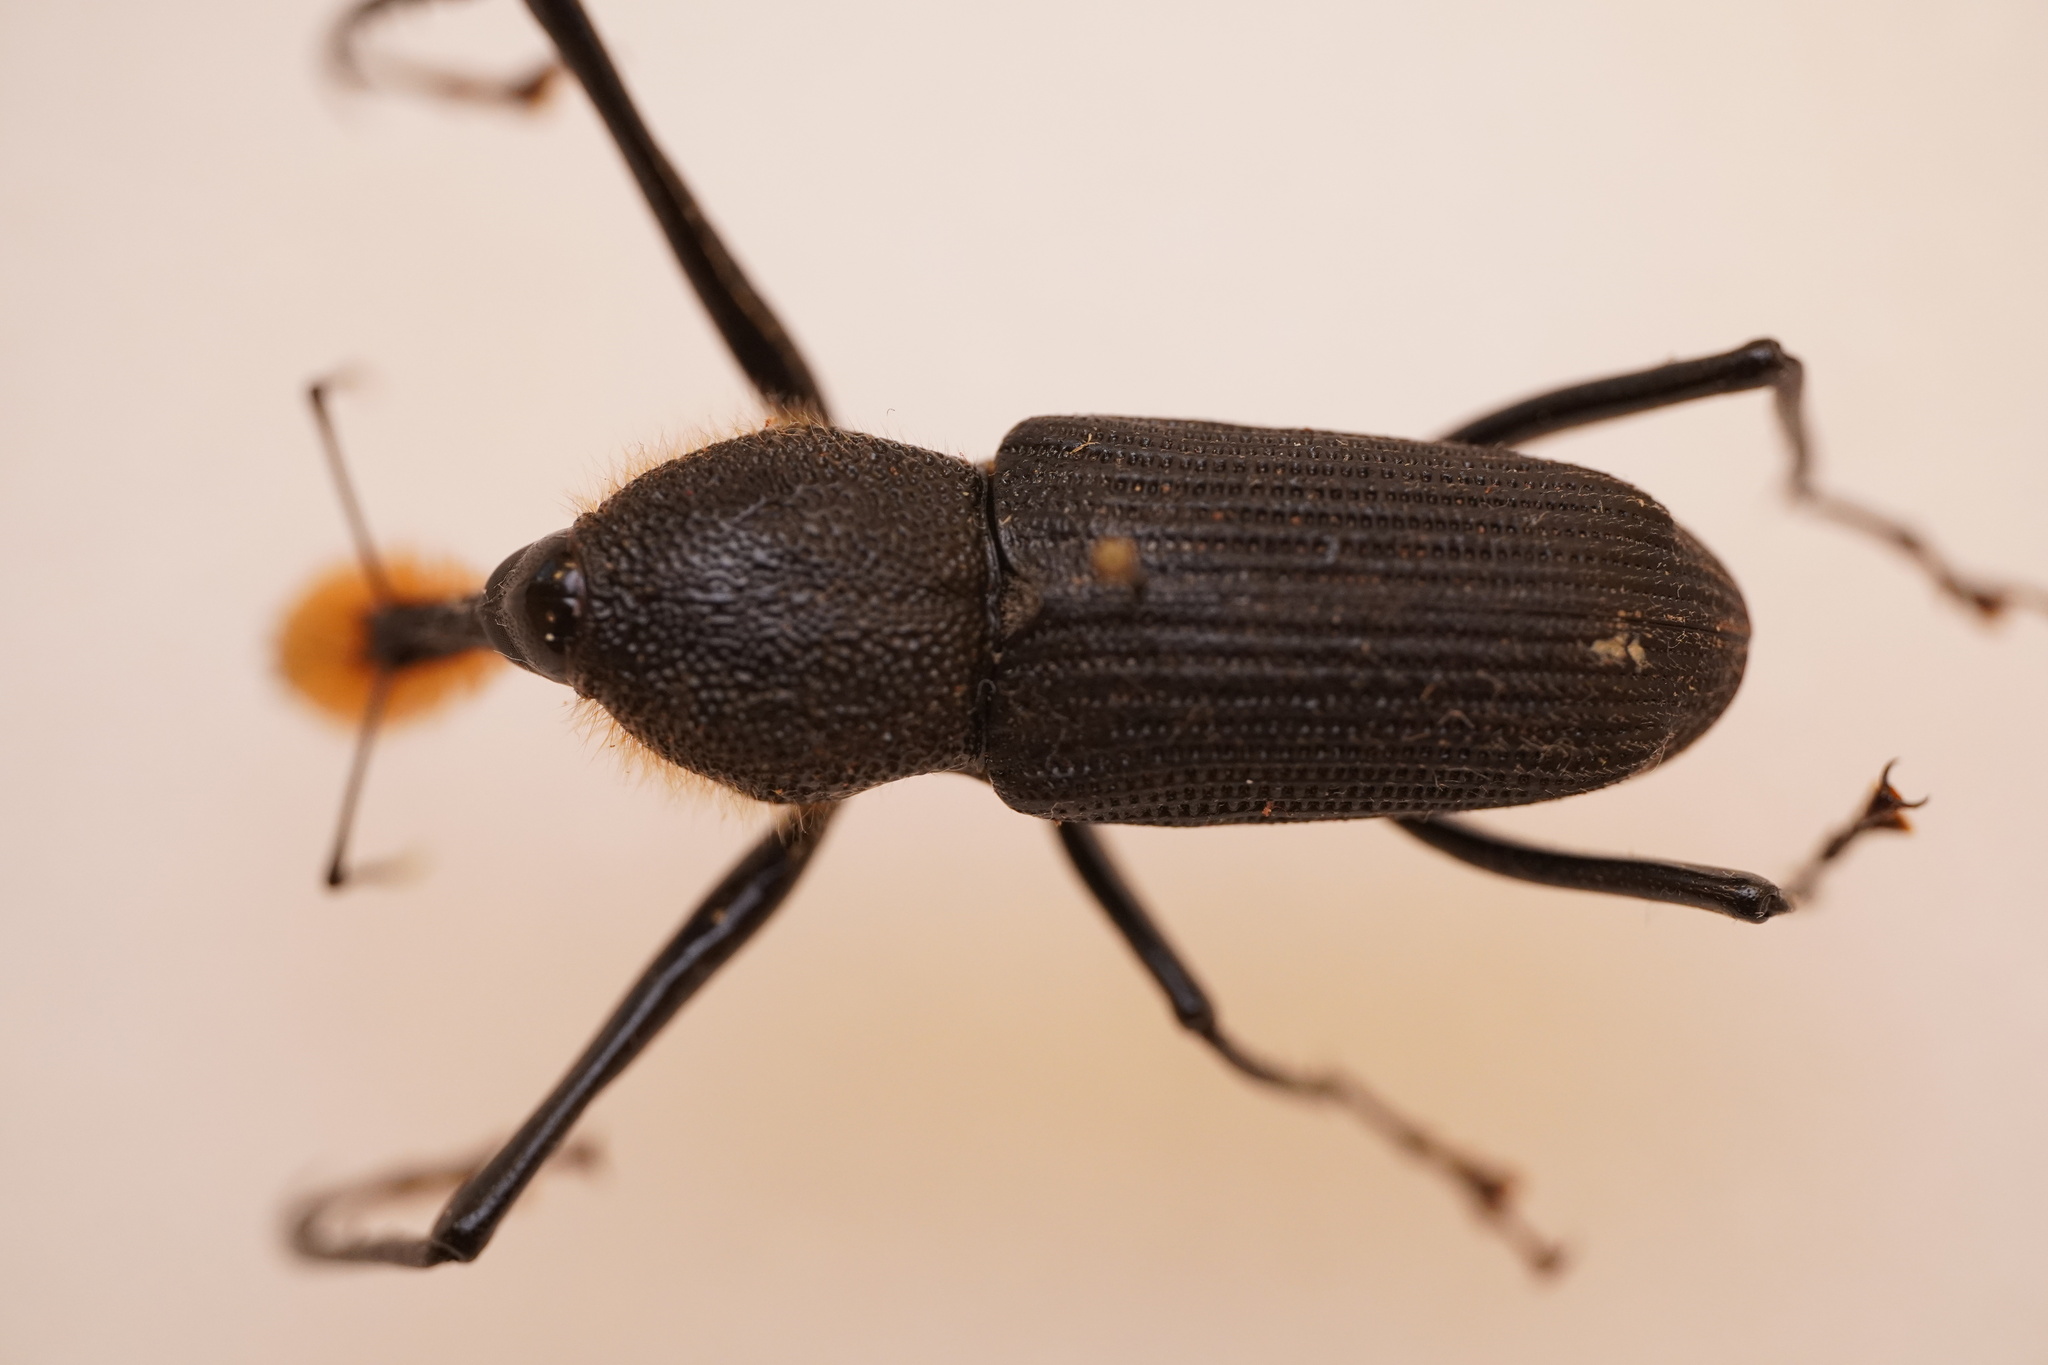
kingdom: Animalia
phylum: Arthropoda
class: Insecta
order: Coleoptera
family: Dryophthoridae
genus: Rhinostomus
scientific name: Rhinostomus barbirostris
